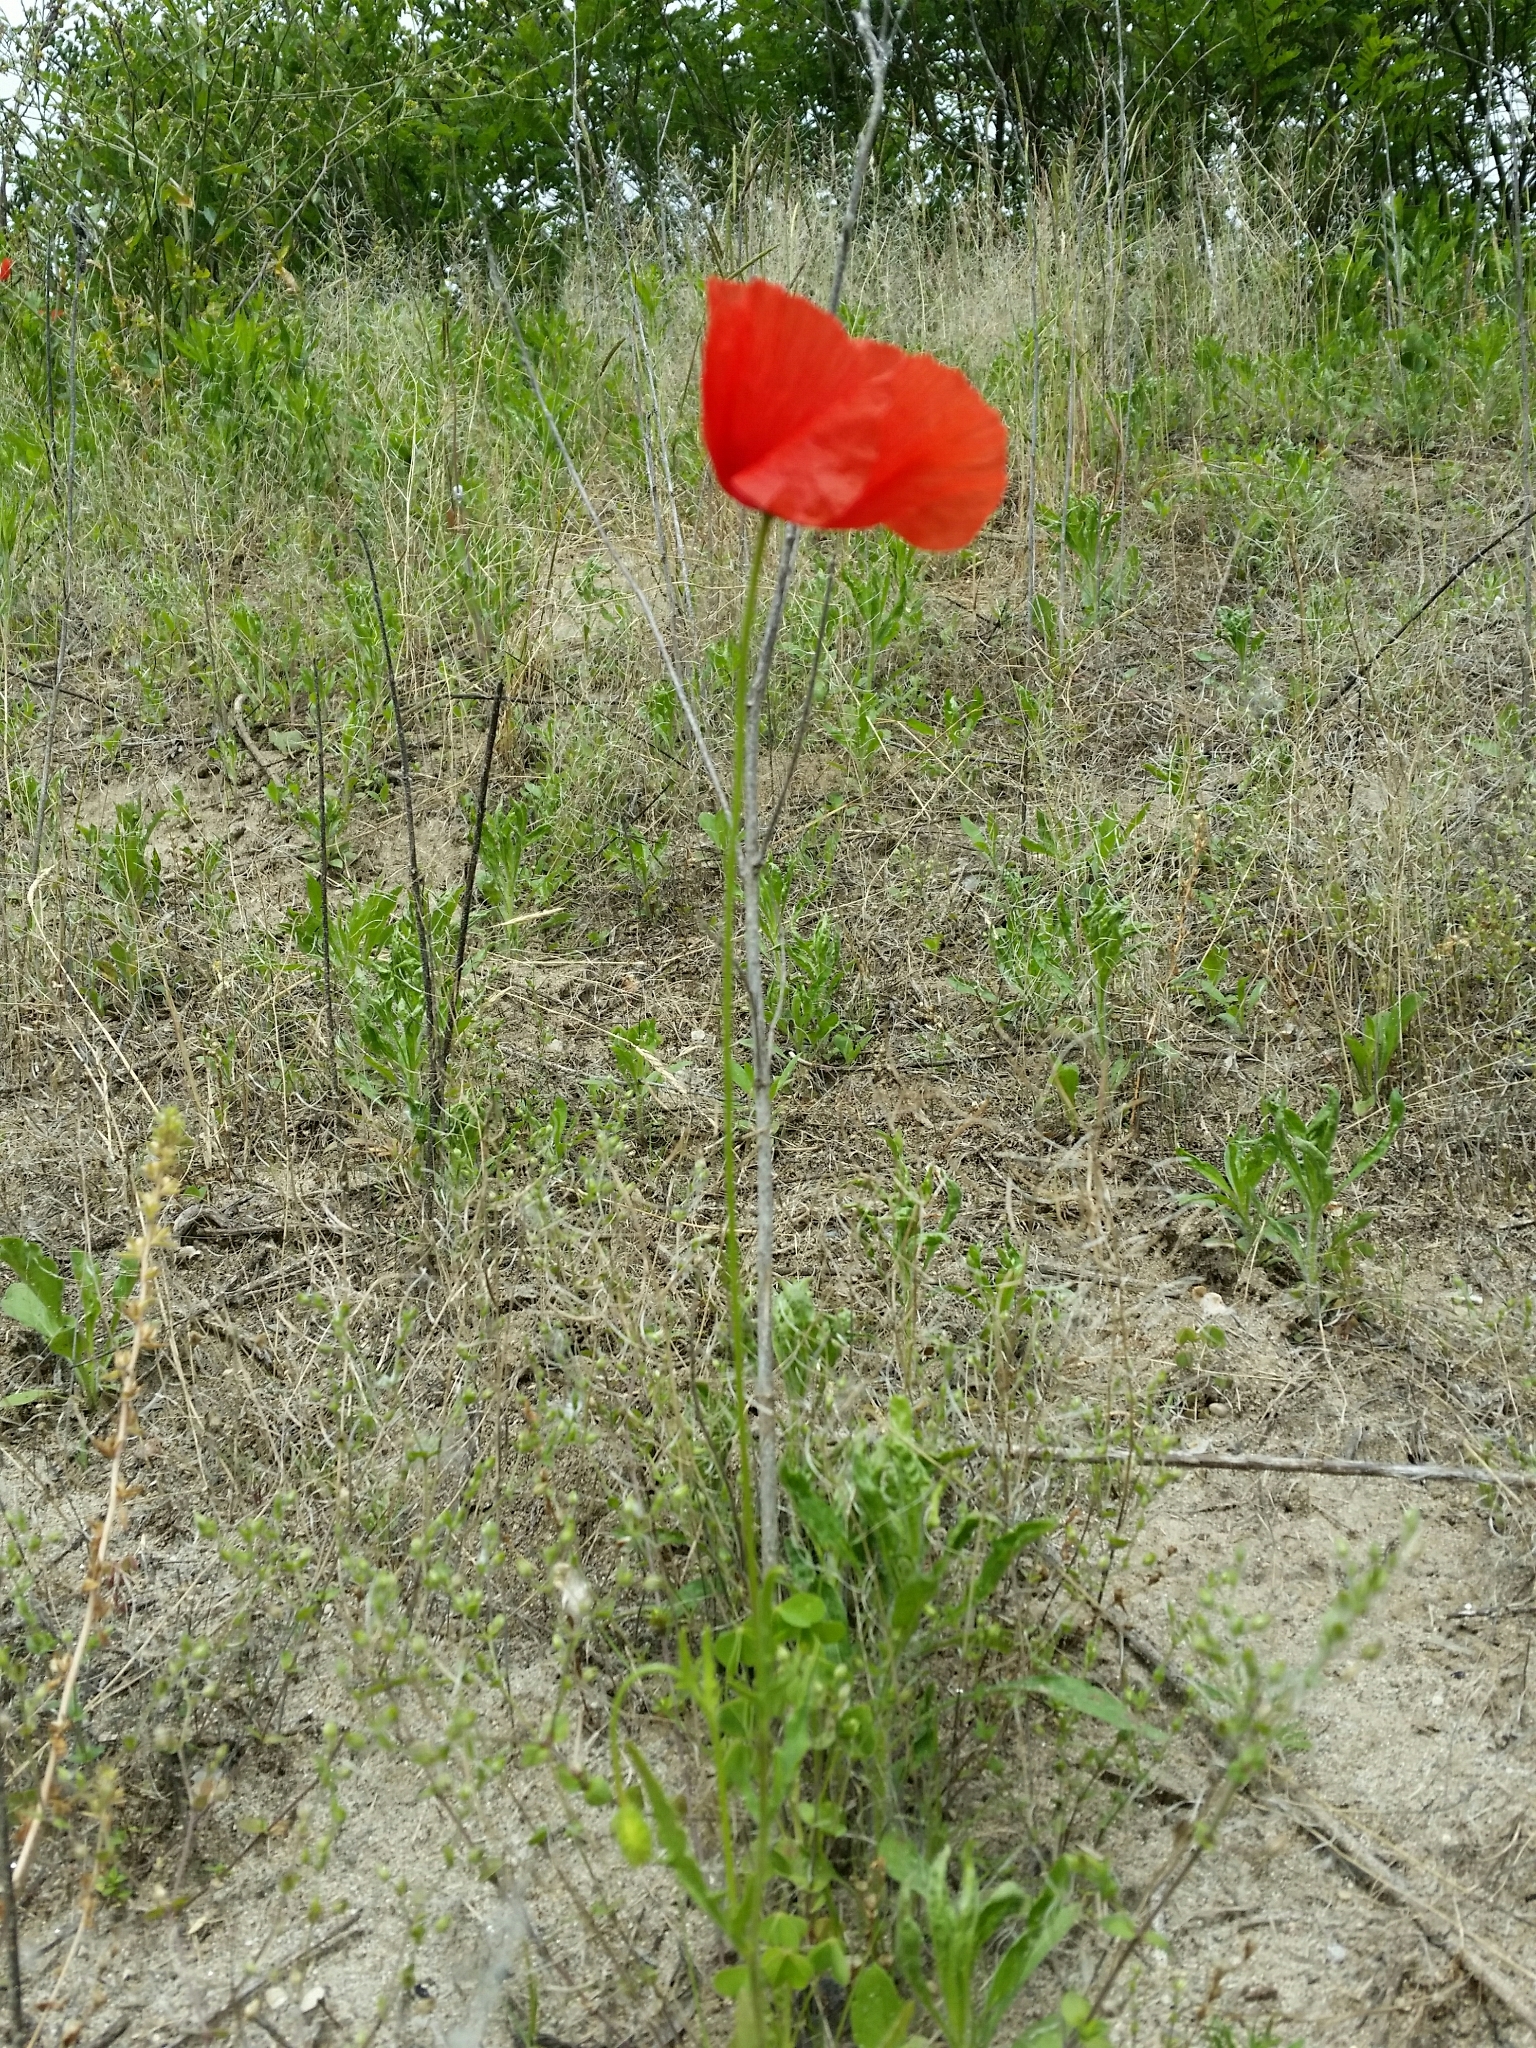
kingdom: Plantae
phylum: Tracheophyta
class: Magnoliopsida
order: Ranunculales
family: Papaveraceae
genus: Papaver
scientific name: Papaver rhoeas
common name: Corn poppy
